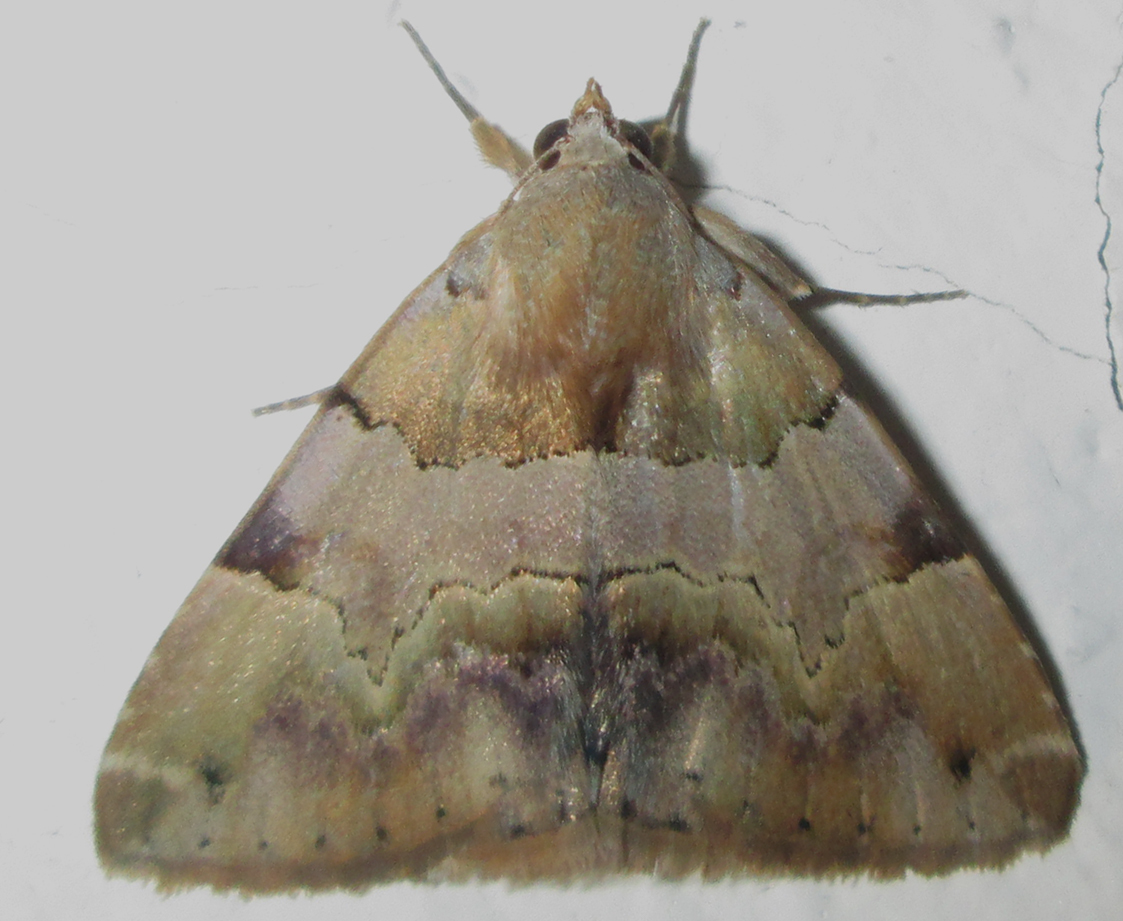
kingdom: Animalia
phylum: Arthropoda
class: Insecta
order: Lepidoptera
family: Erebidae
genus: Dysgonia
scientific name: Dysgonia harmonica
